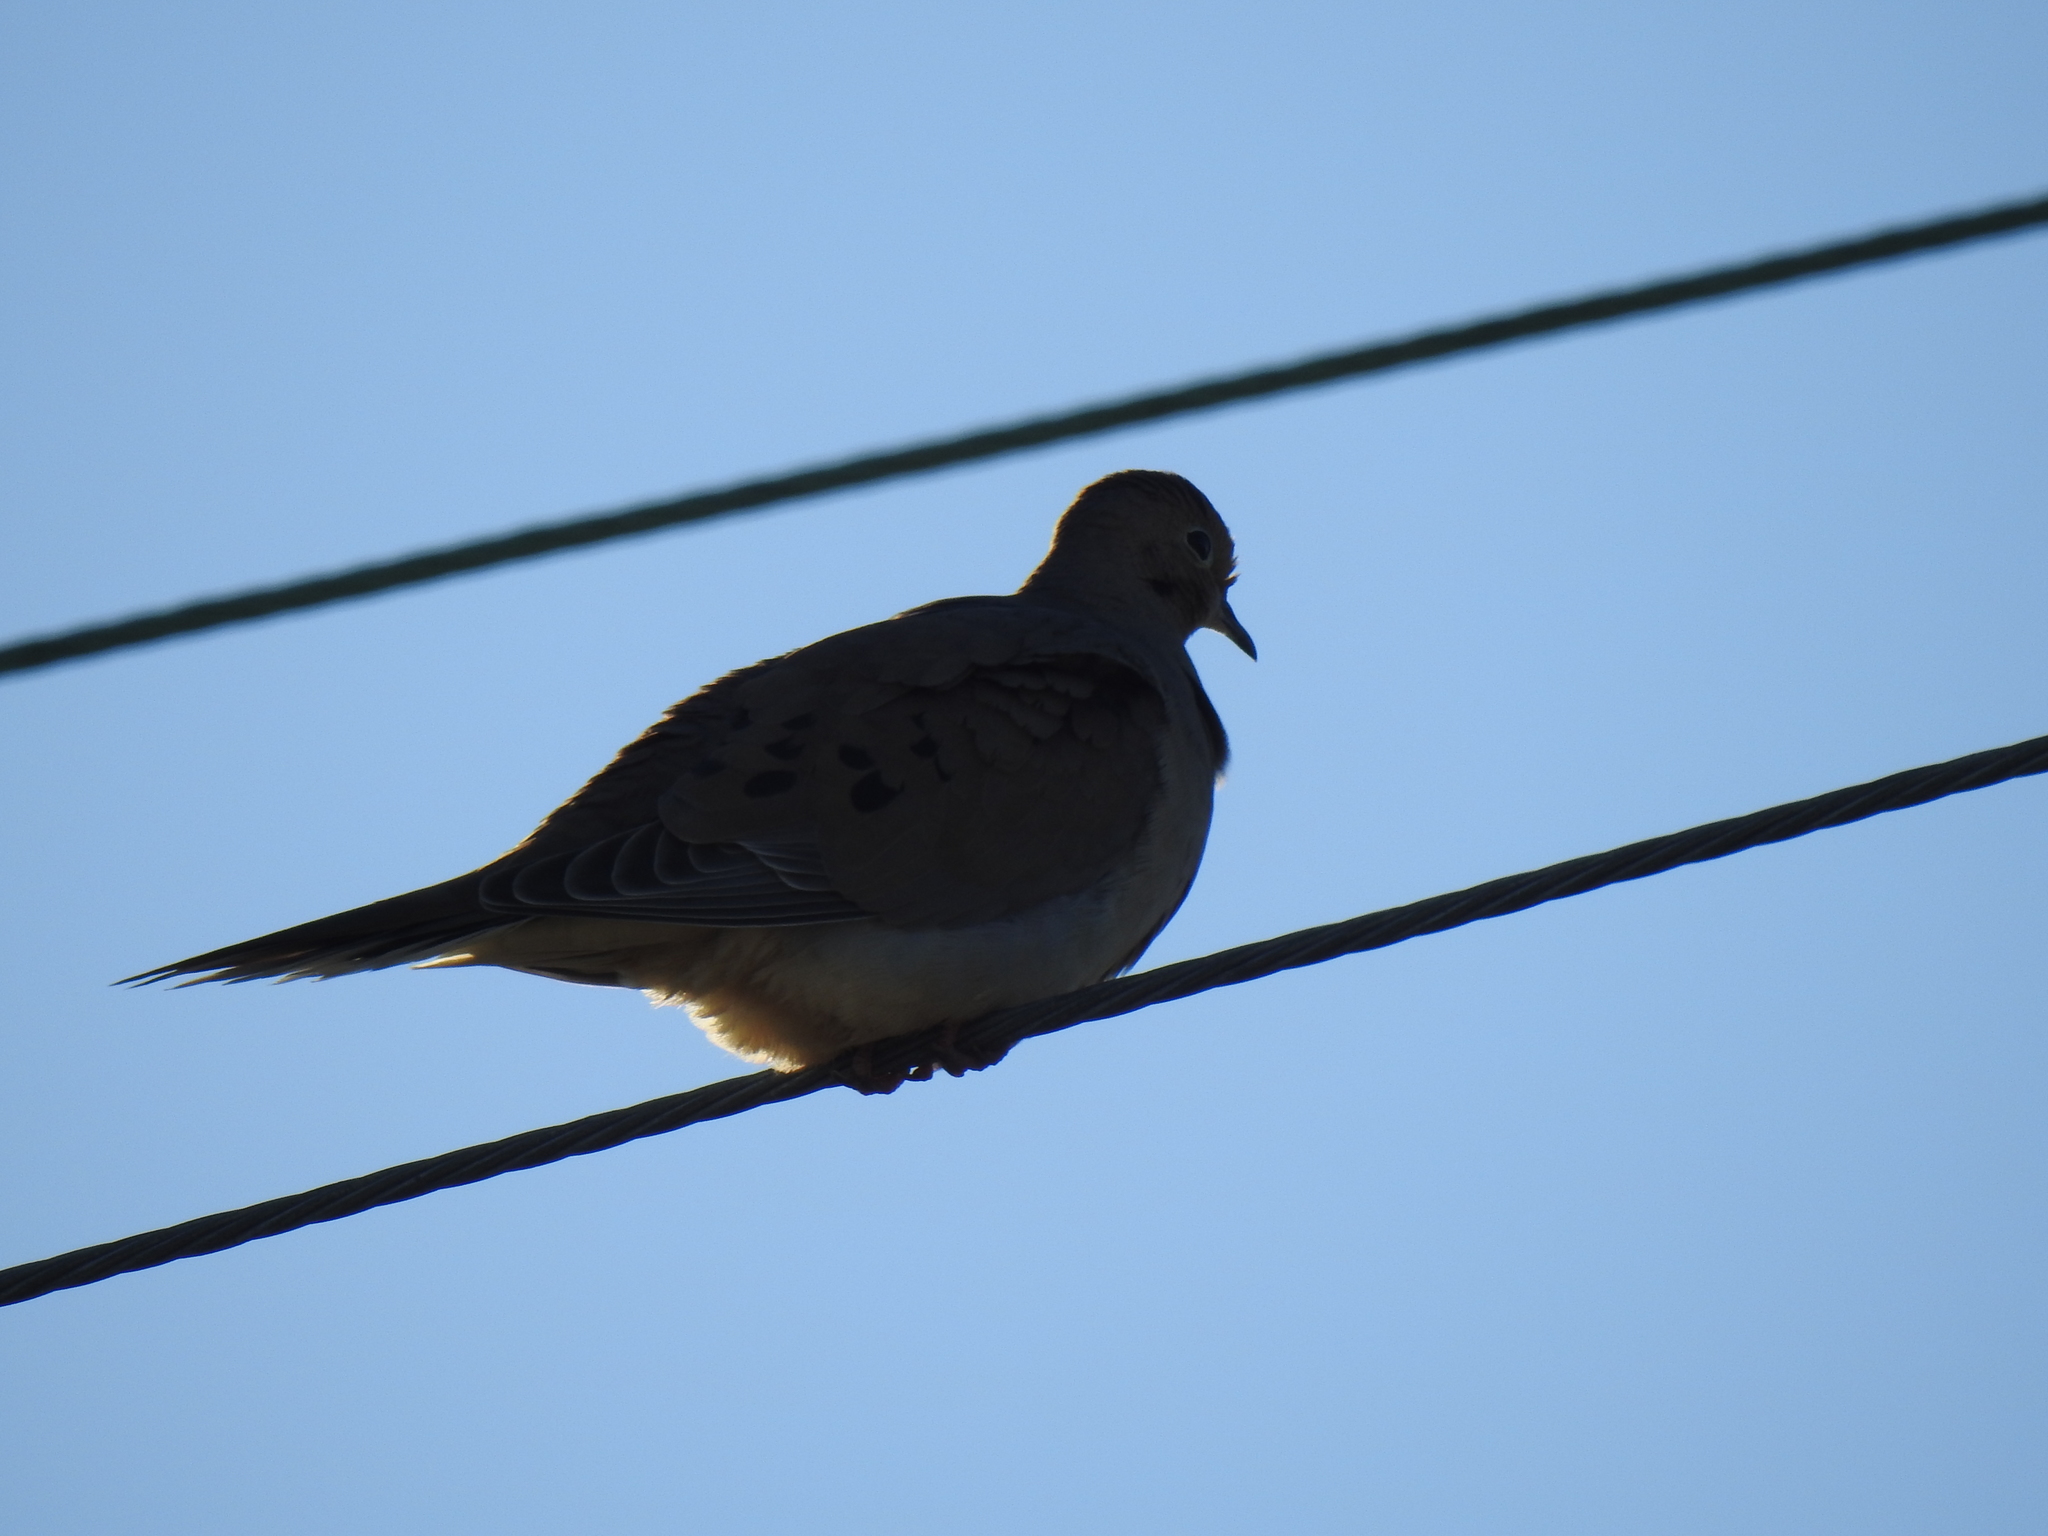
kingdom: Animalia
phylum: Chordata
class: Aves
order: Columbiformes
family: Columbidae
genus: Zenaida
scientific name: Zenaida macroura
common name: Mourning dove
